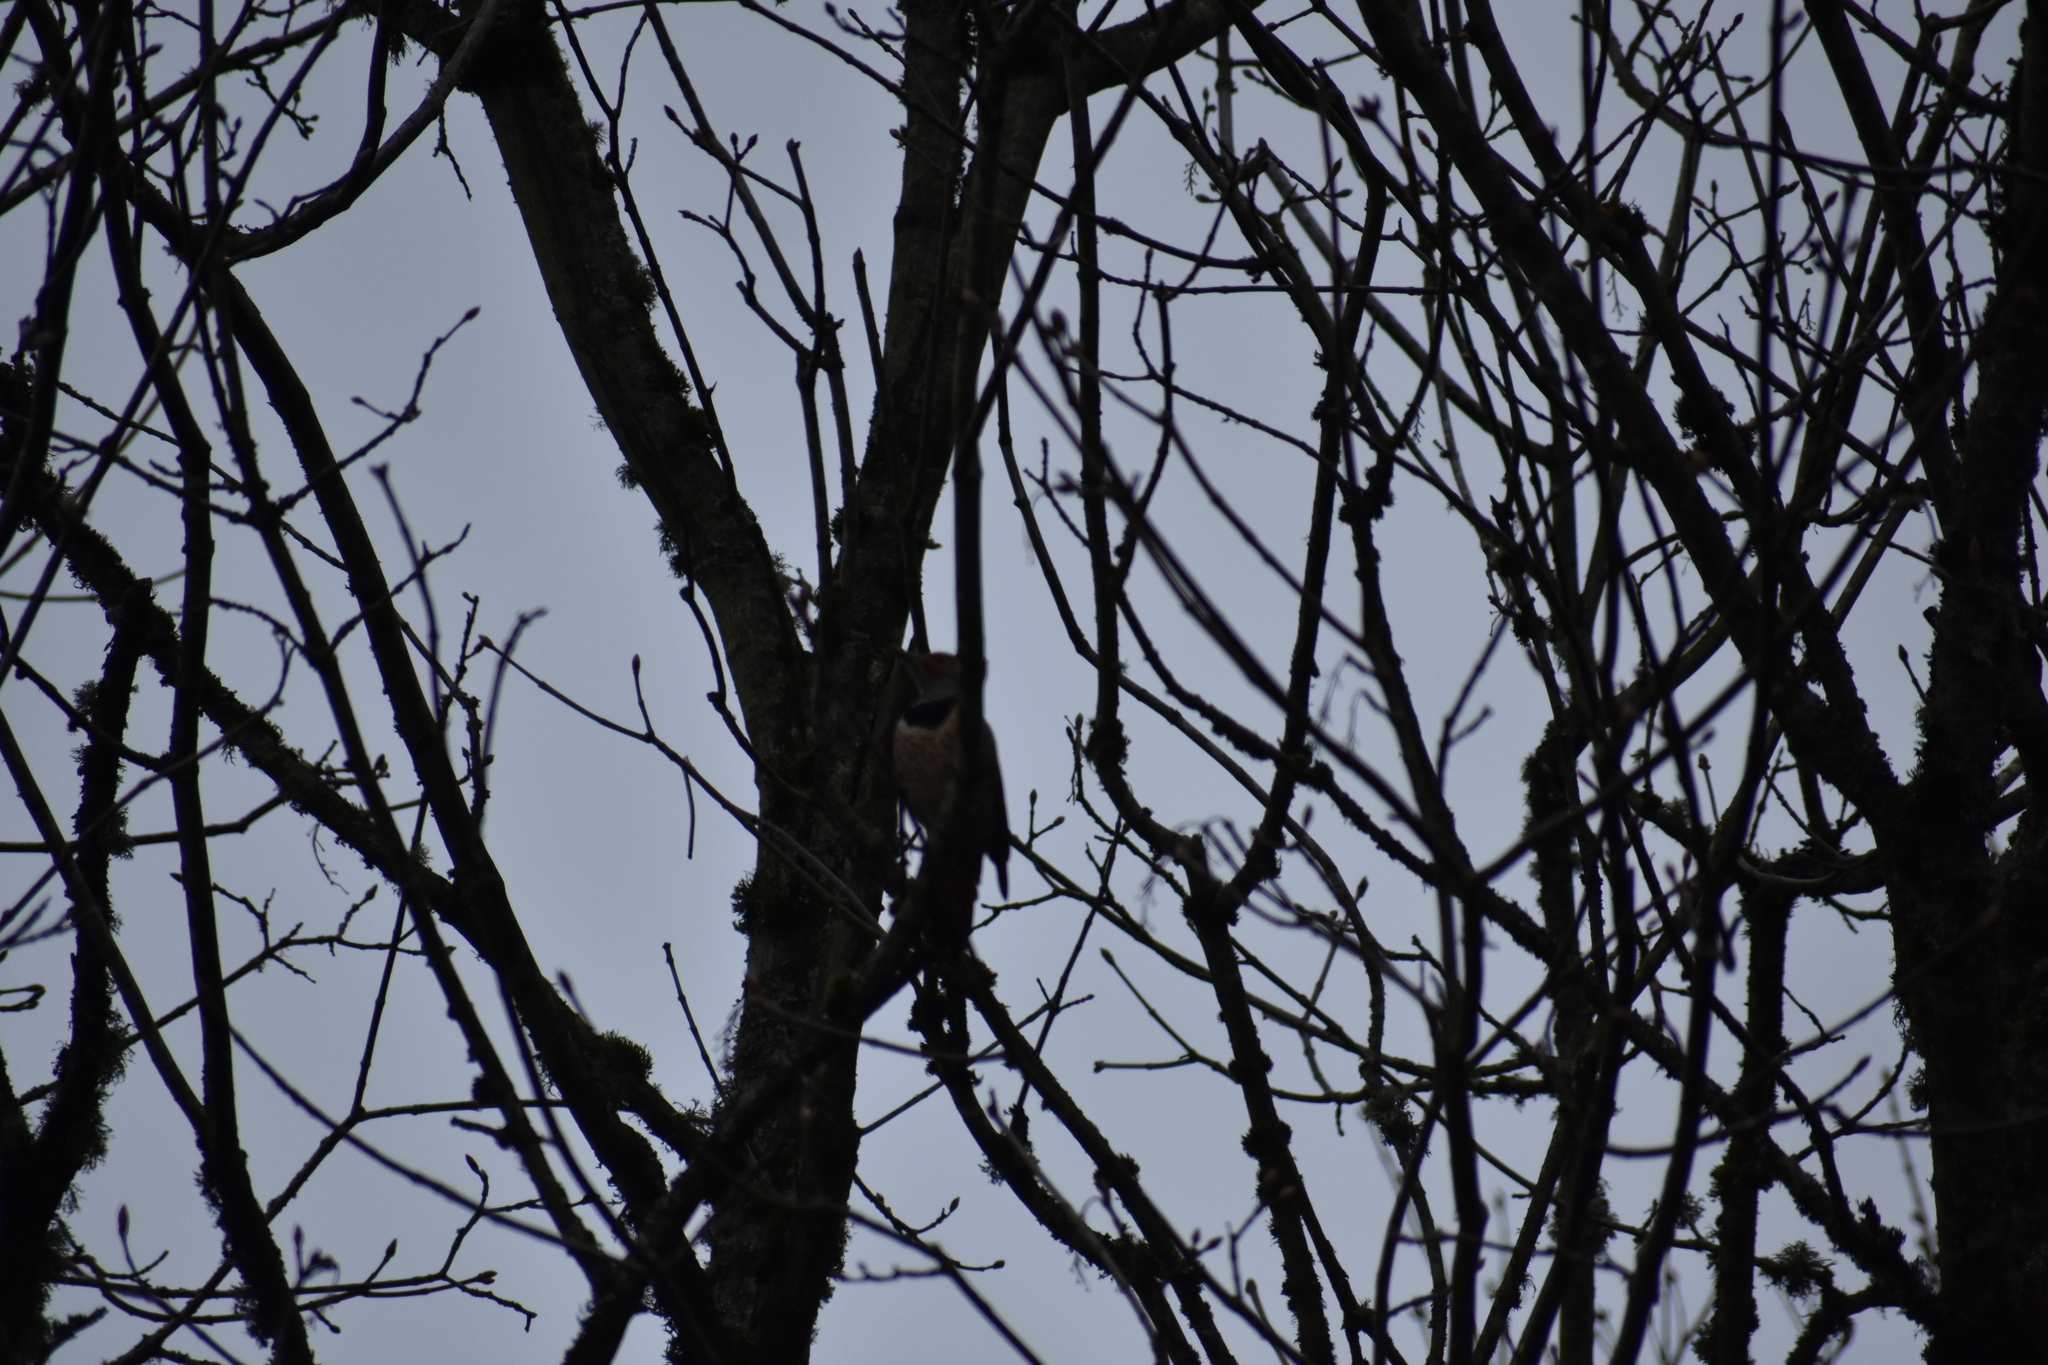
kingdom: Animalia
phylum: Chordata
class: Aves
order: Piciformes
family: Picidae
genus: Colaptes
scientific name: Colaptes auratus
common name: Northern flicker
